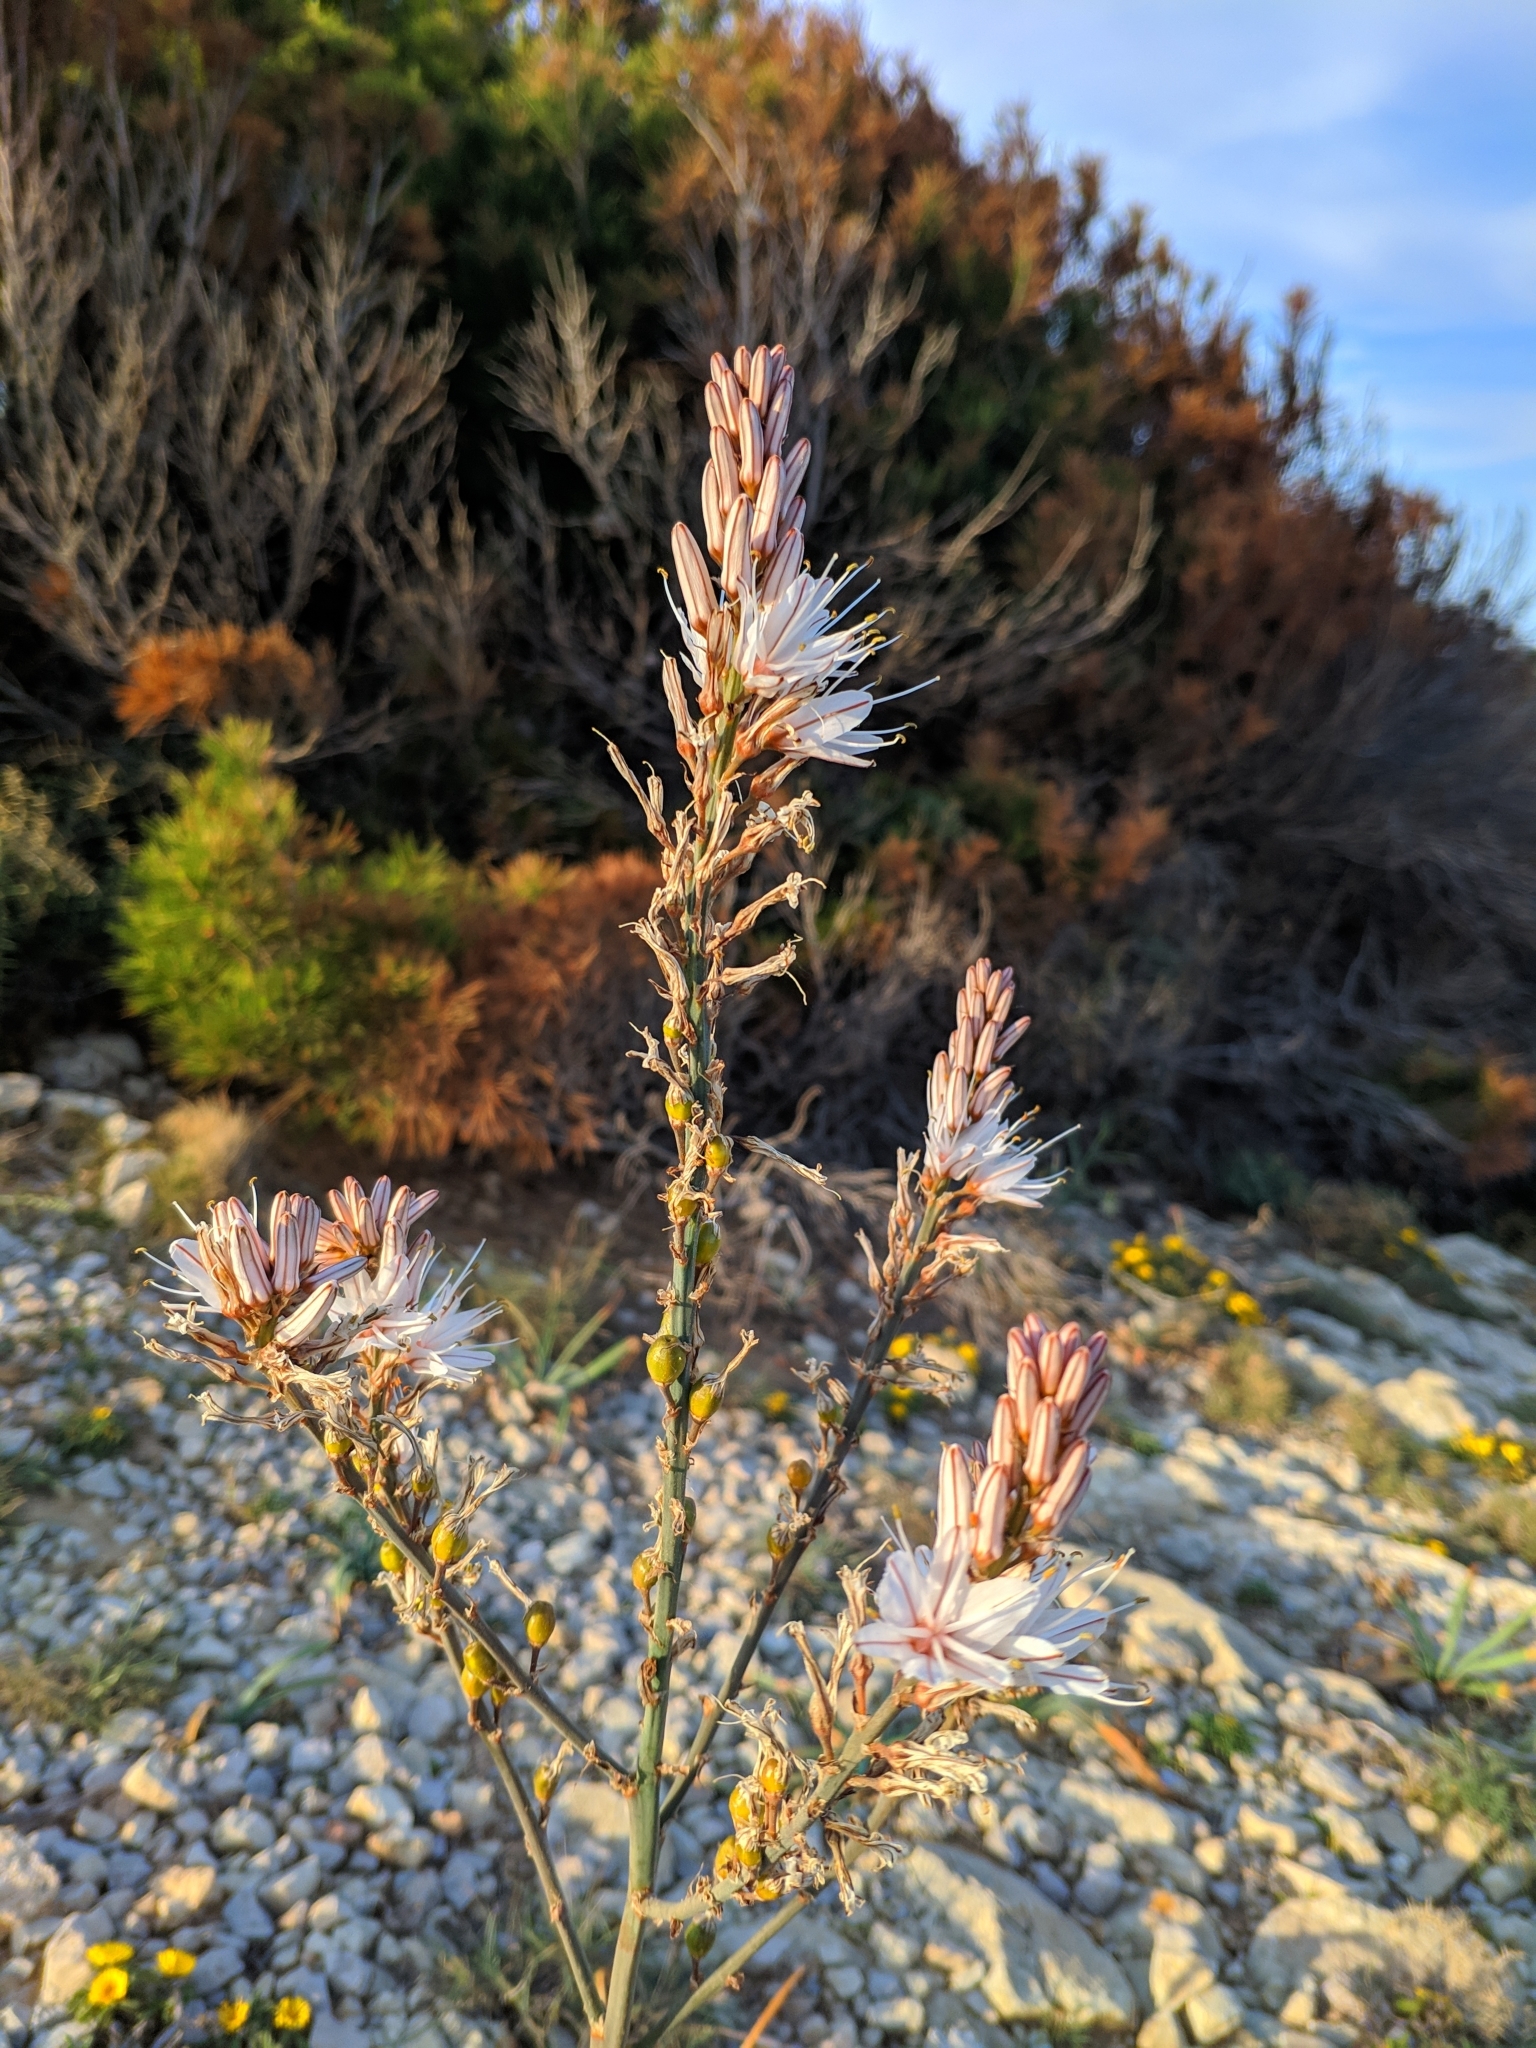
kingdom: Plantae
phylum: Tracheophyta
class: Liliopsida
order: Asparagales
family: Asphodelaceae
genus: Asphodelus
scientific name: Asphodelus ramosus
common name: Silverrod
